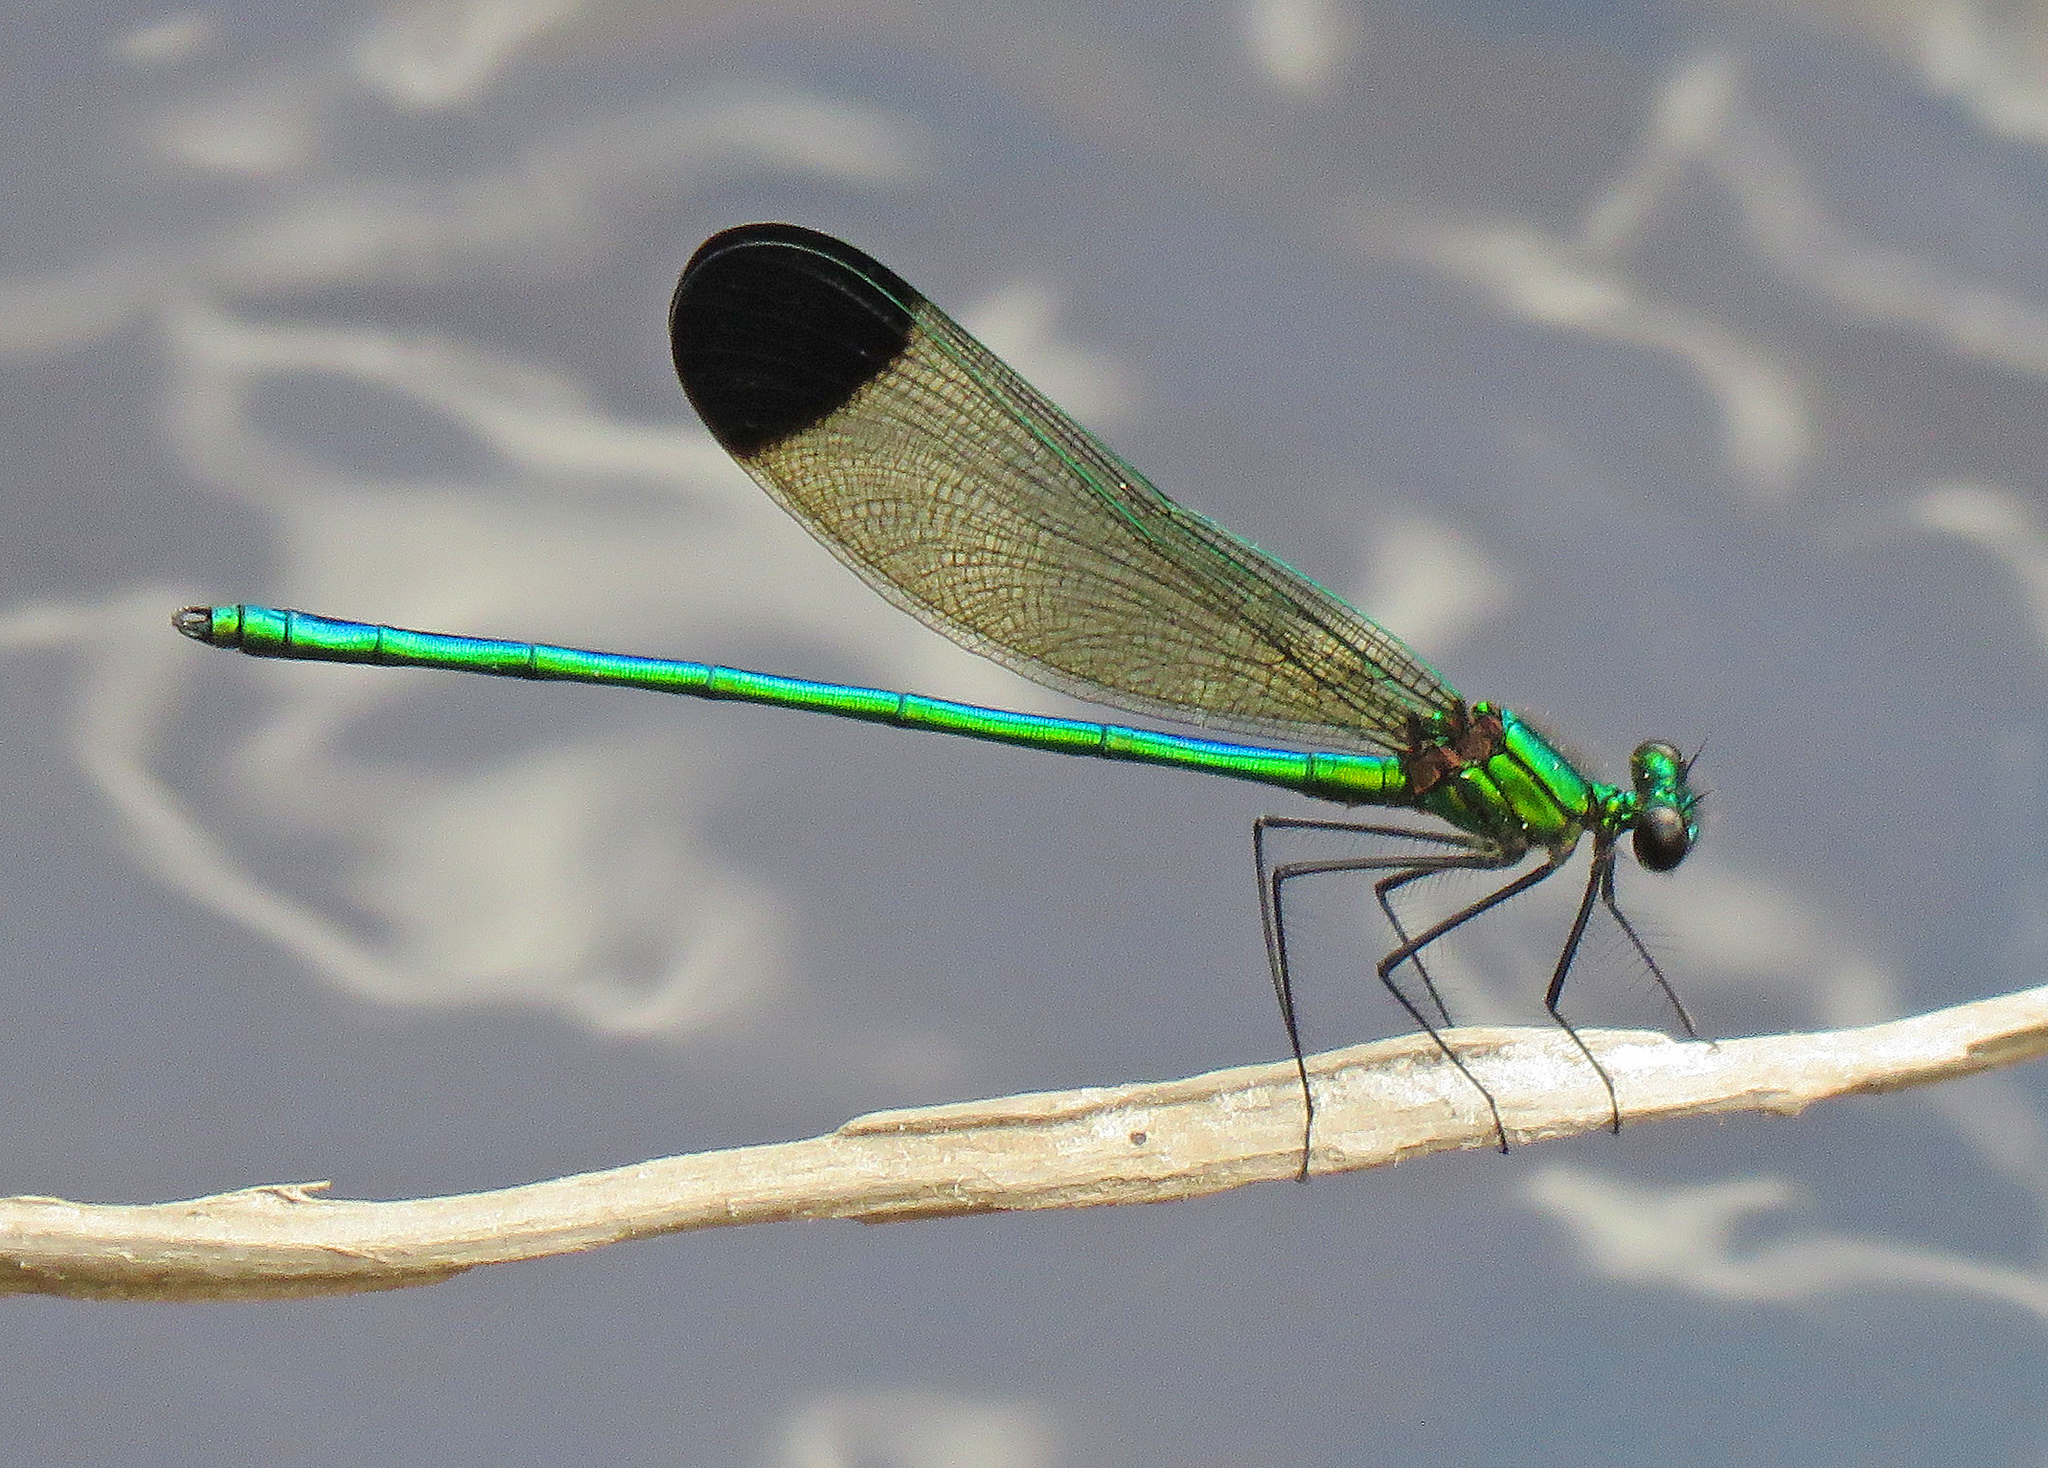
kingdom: Animalia
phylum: Arthropoda
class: Insecta
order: Odonata
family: Calopterygidae
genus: Calopteryx
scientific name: Calopteryx dimidiata
